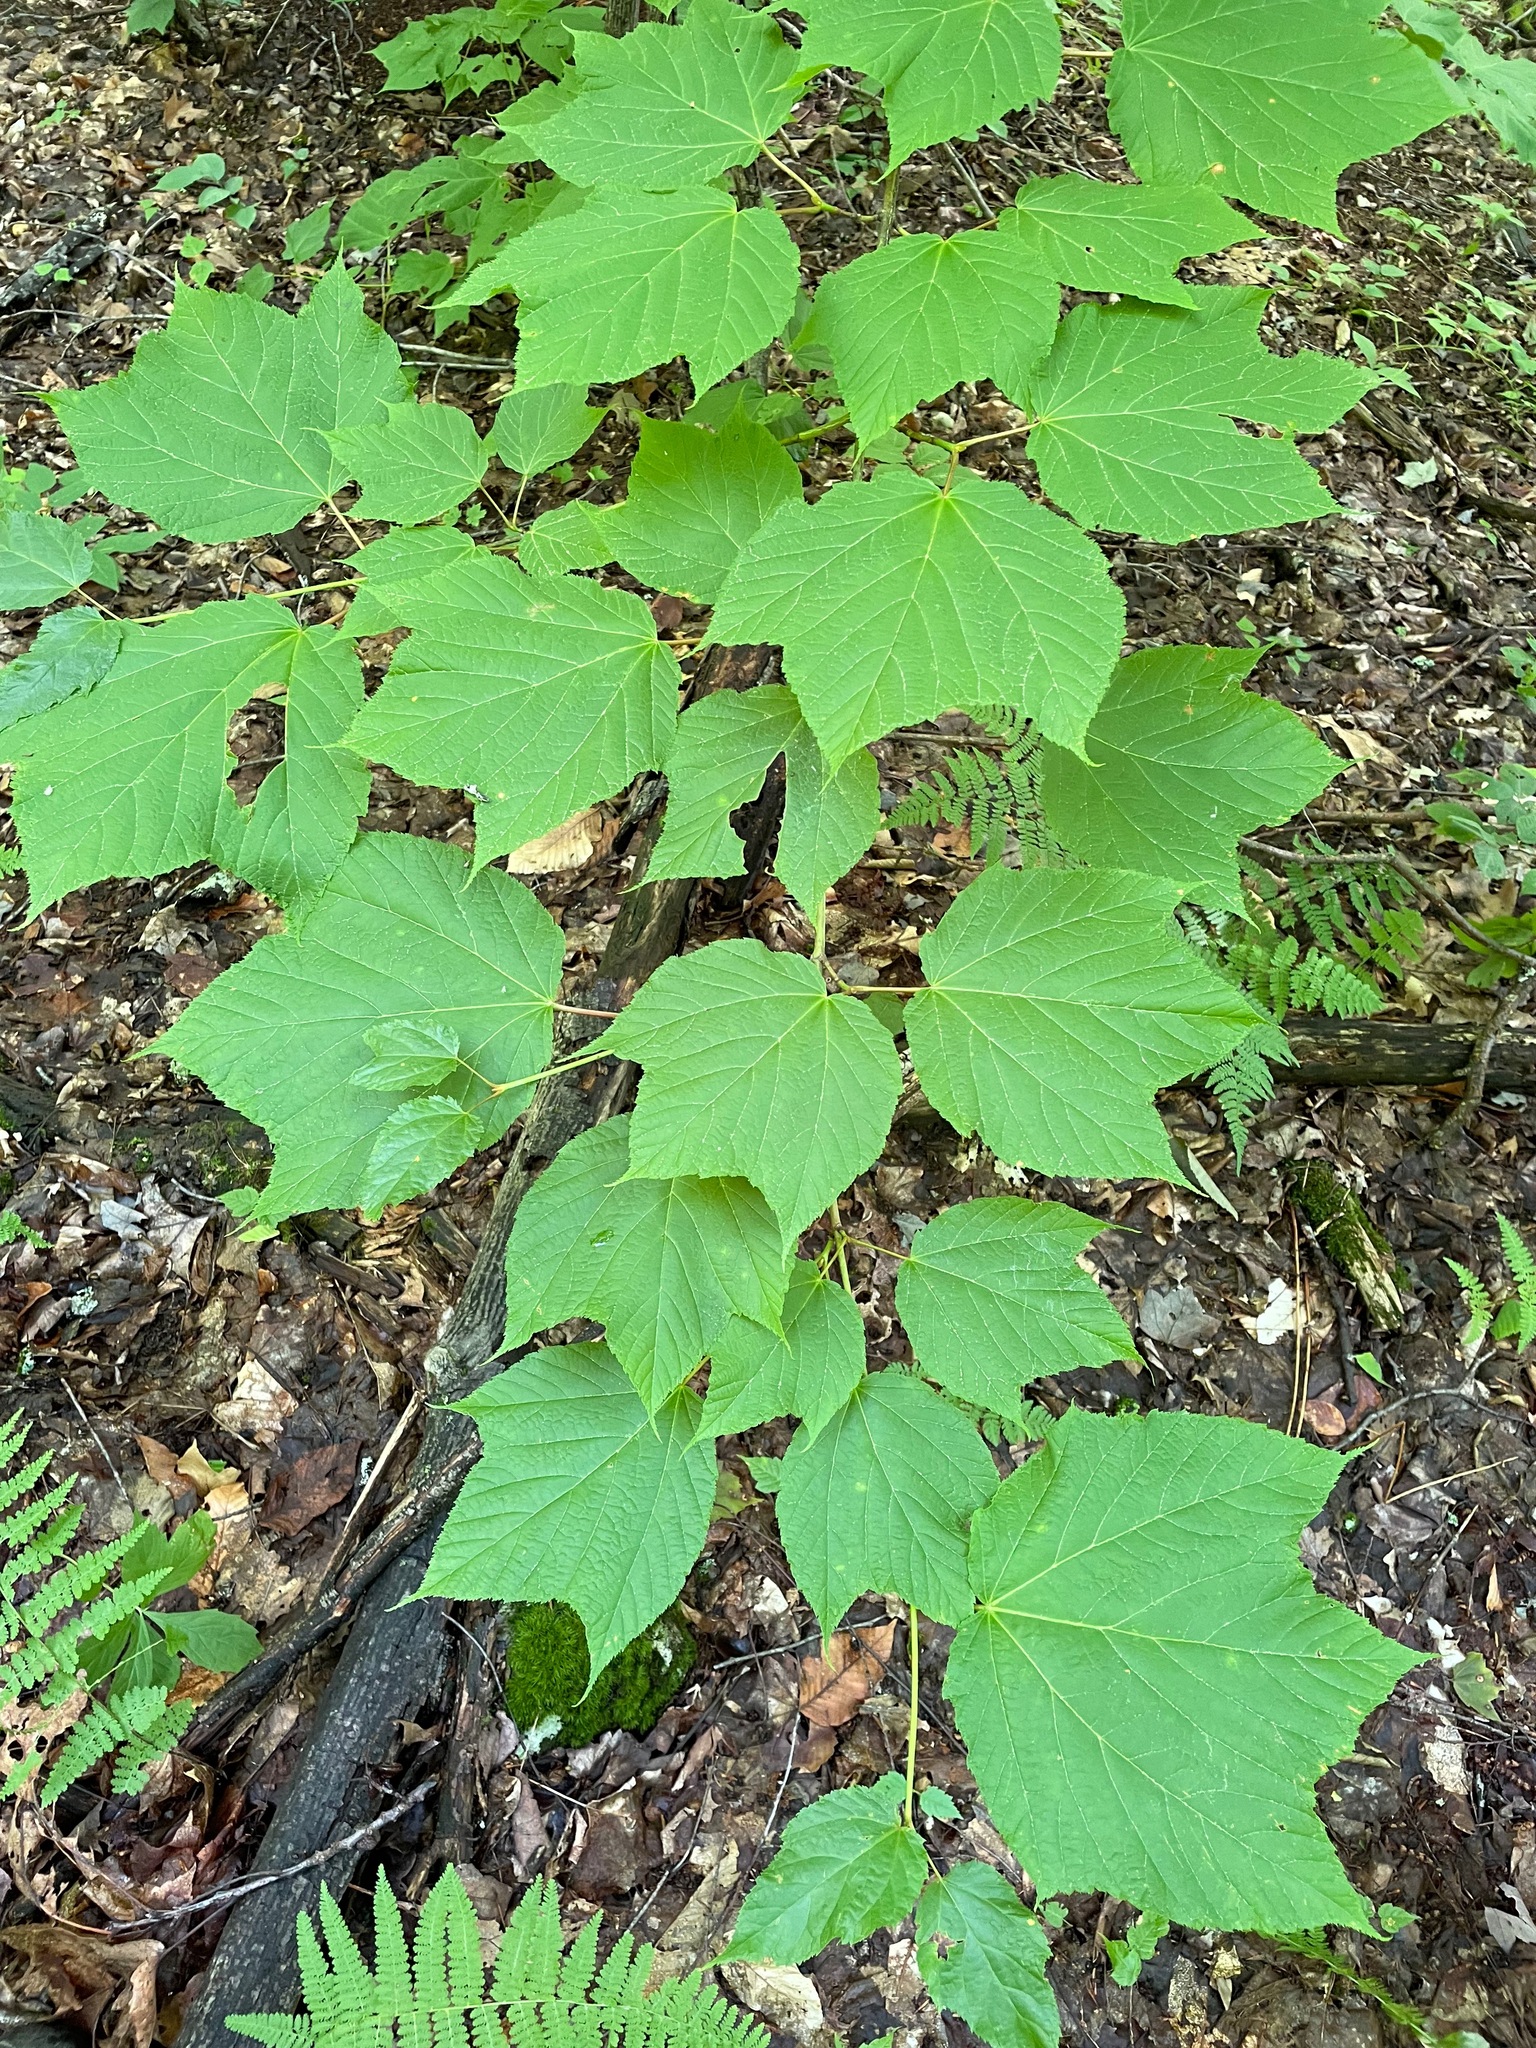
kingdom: Plantae
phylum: Tracheophyta
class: Magnoliopsida
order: Sapindales
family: Sapindaceae
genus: Acer
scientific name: Acer pensylvanicum
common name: Moosewood
